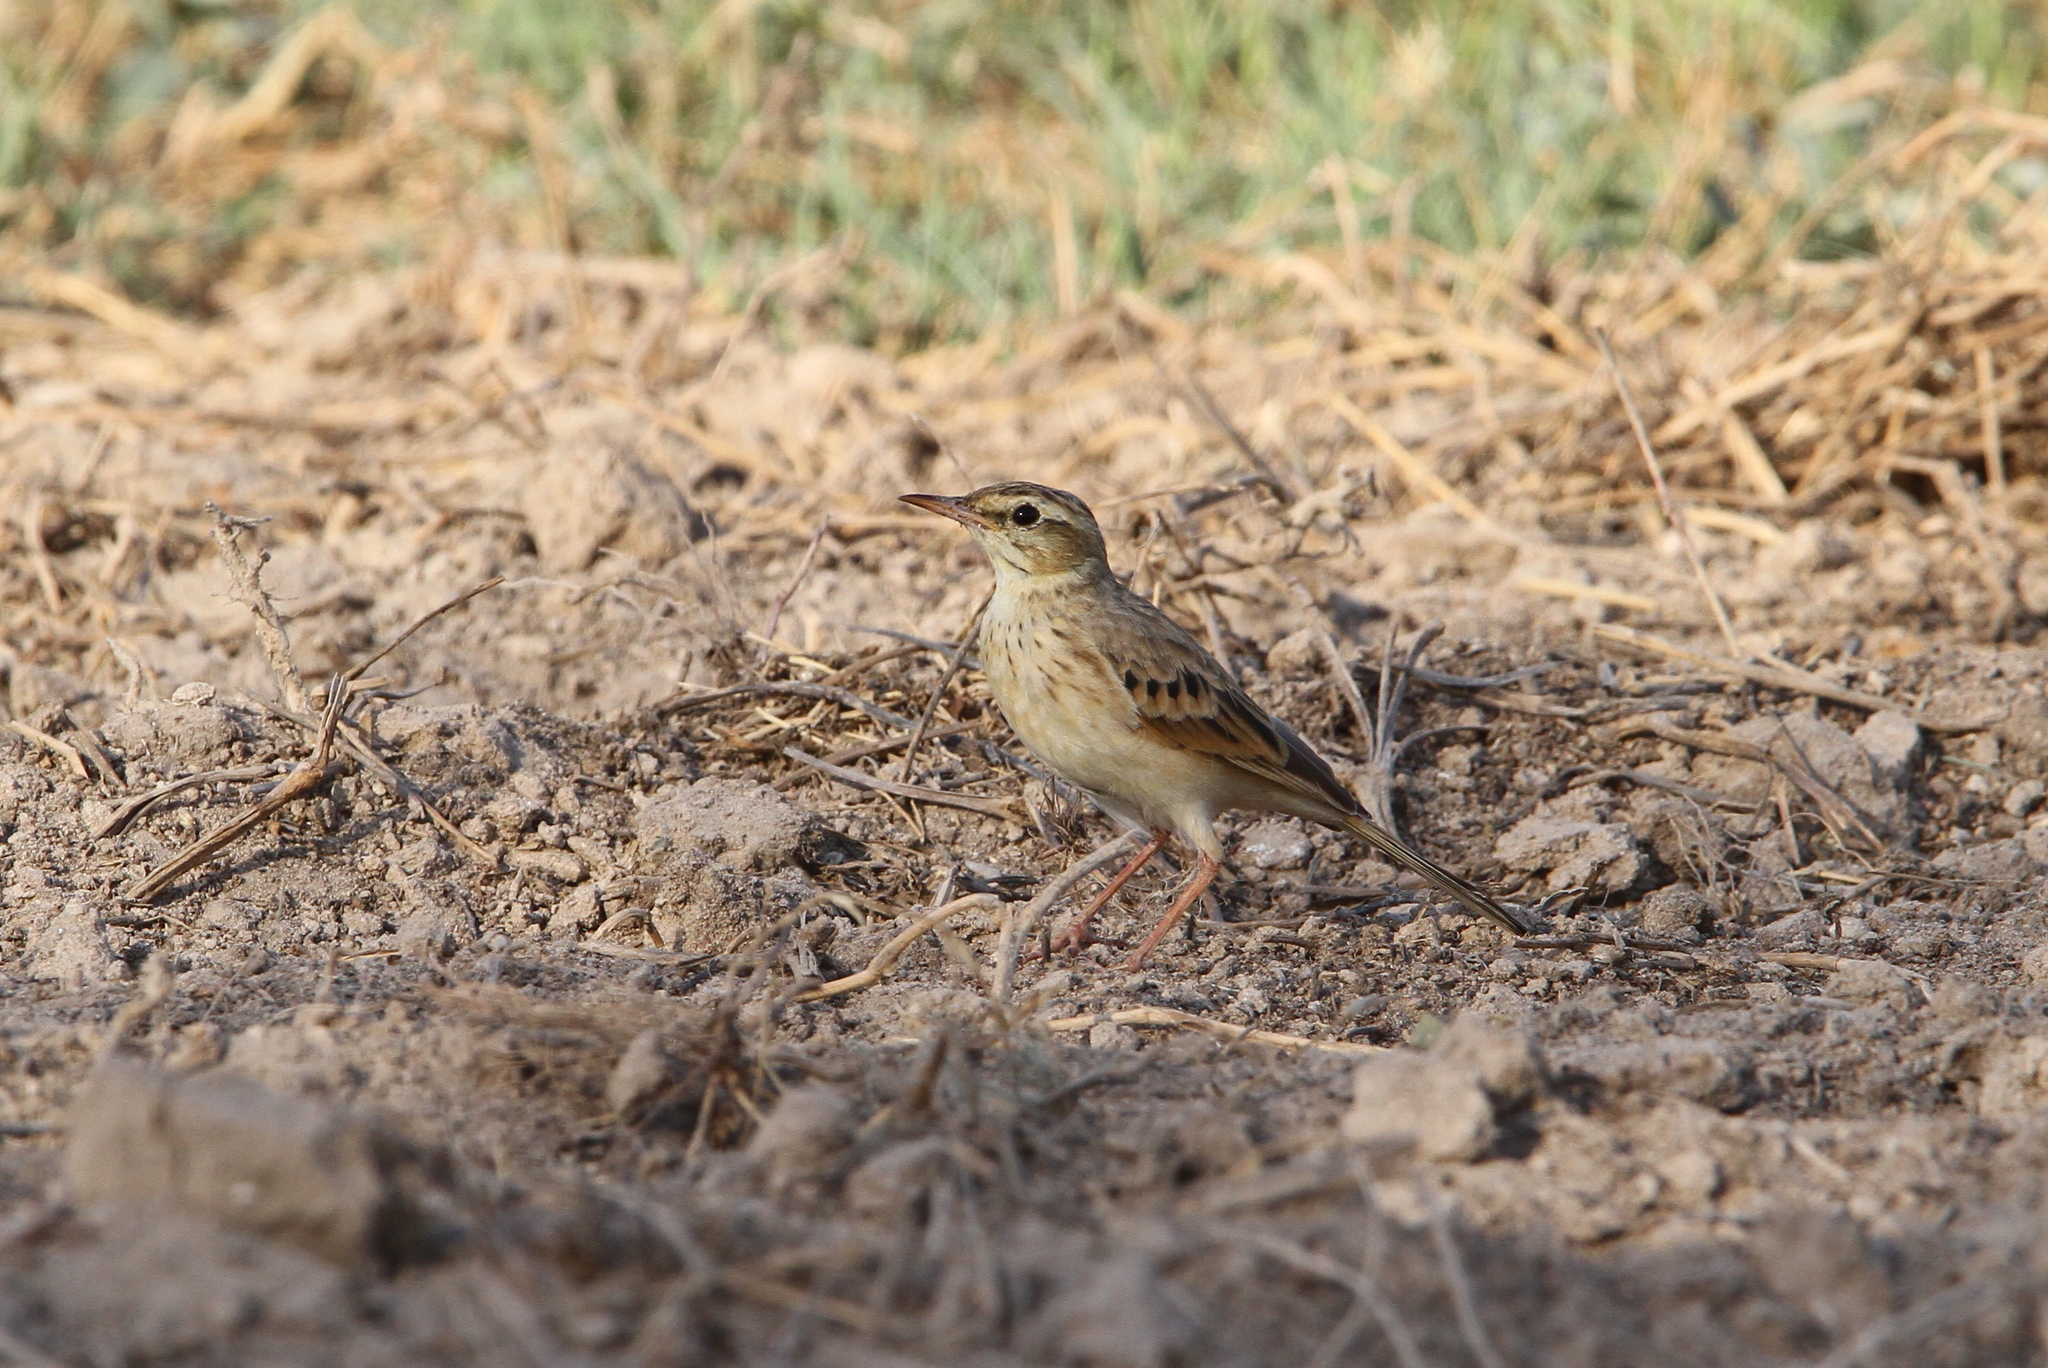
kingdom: Animalia
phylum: Chordata
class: Aves
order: Passeriformes
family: Motacillidae
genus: Anthus
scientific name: Anthus campestris
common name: Tawny pipit
